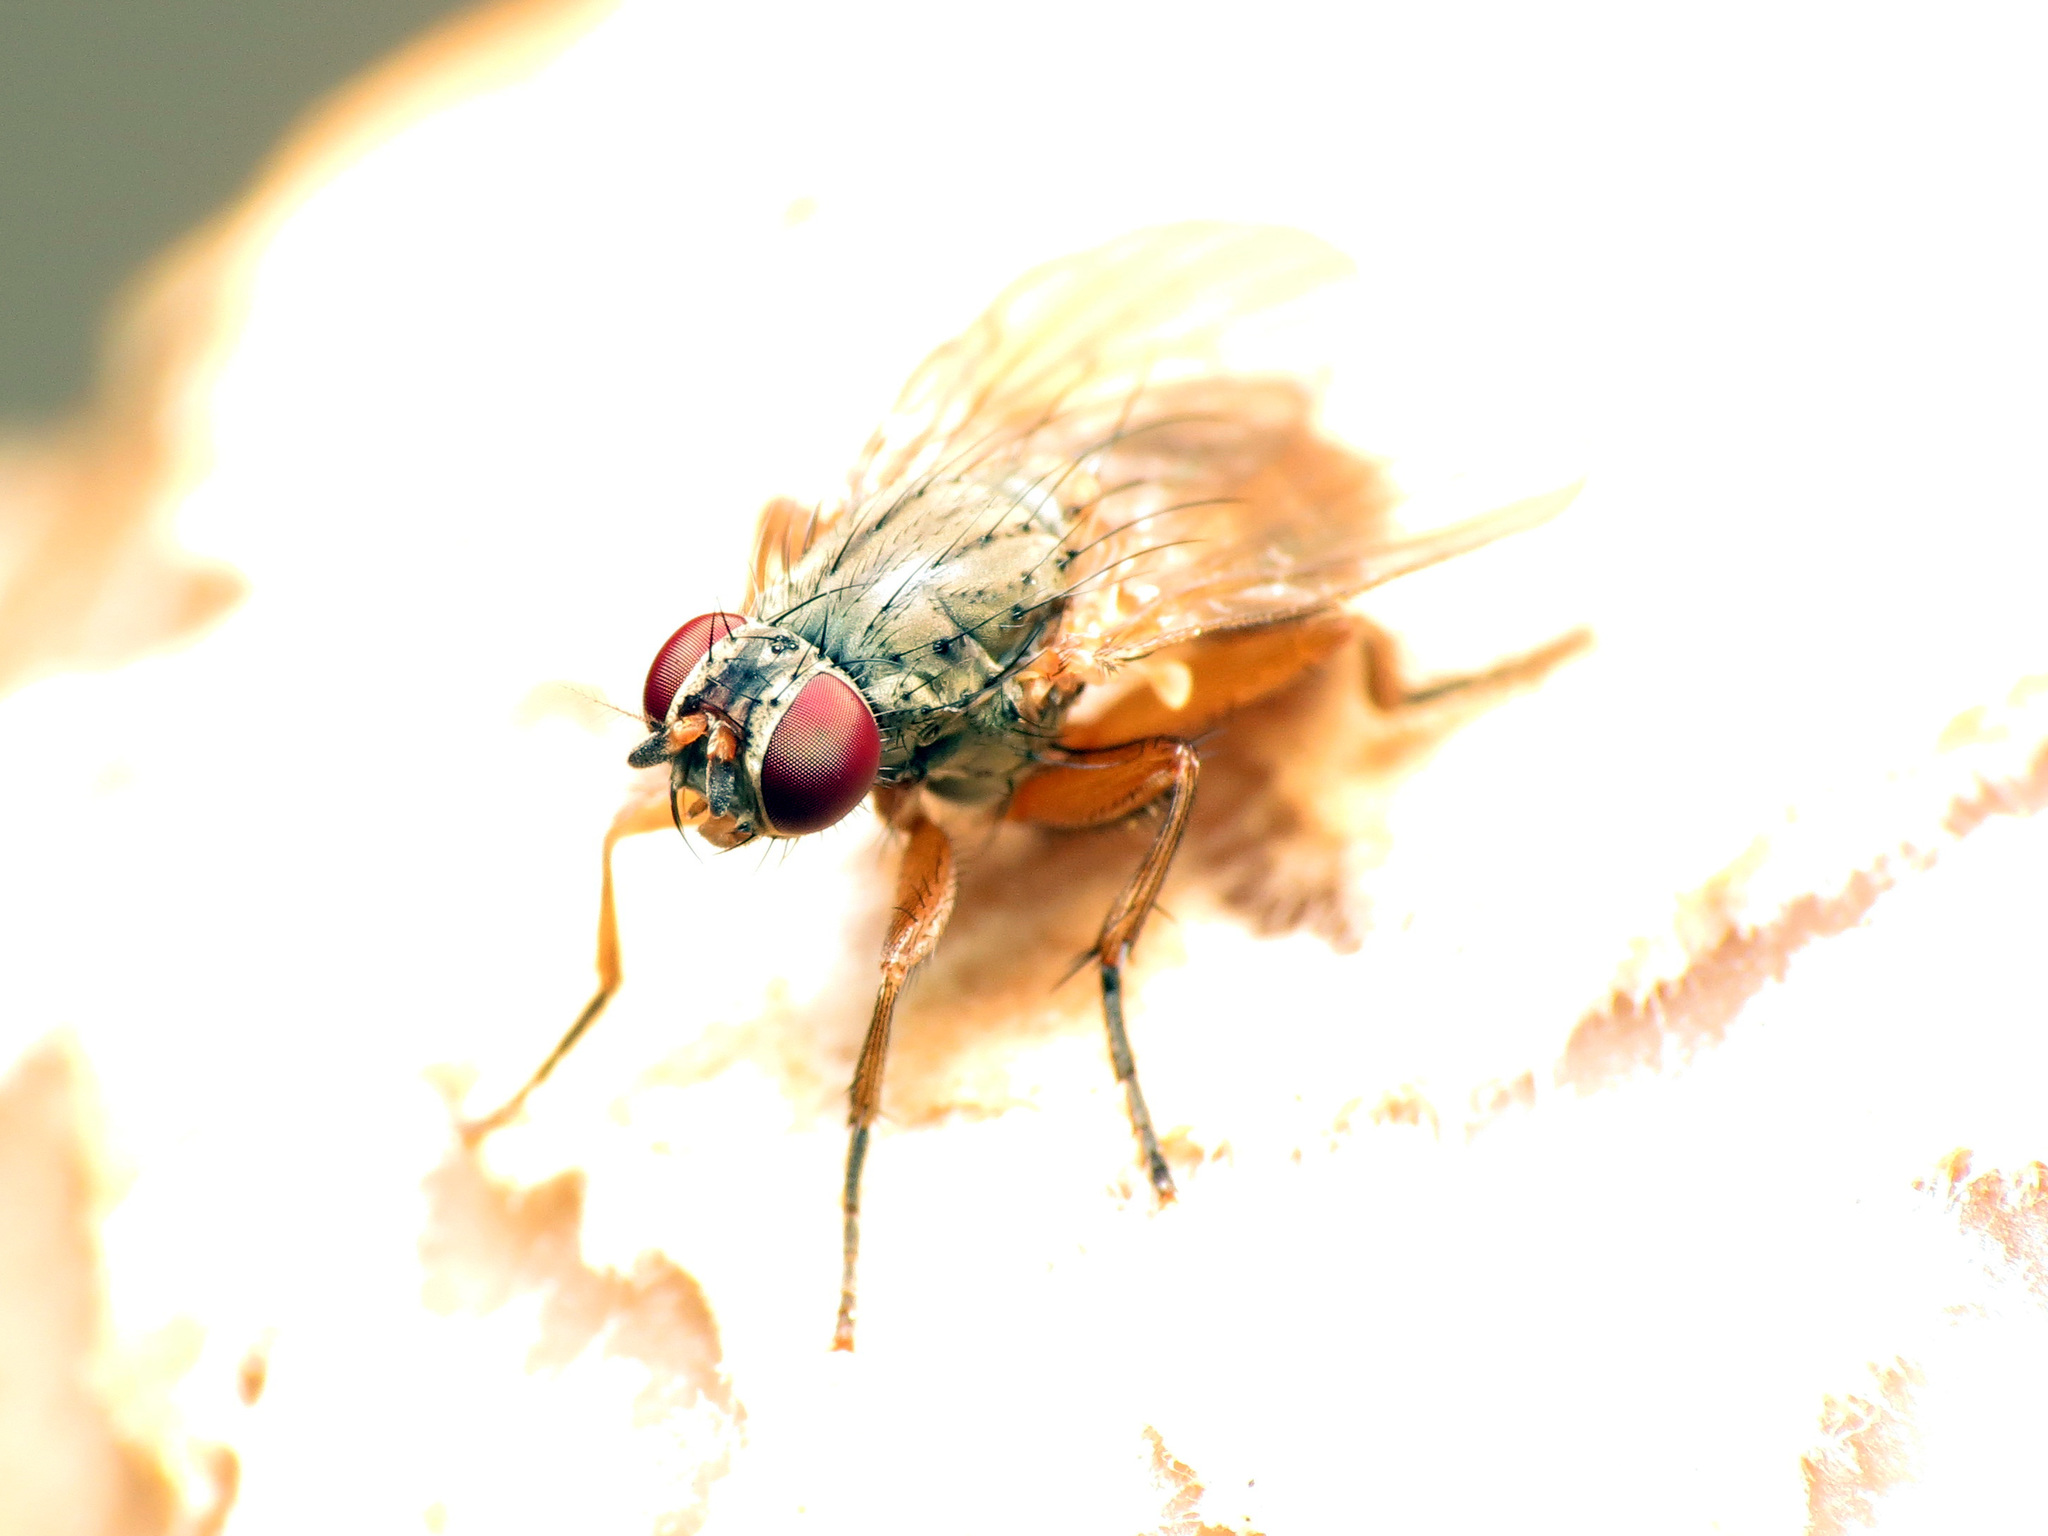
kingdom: Animalia
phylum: Arthropoda
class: Insecta
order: Diptera
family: Fanniidae
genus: Piezura
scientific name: Piezura graminicola
